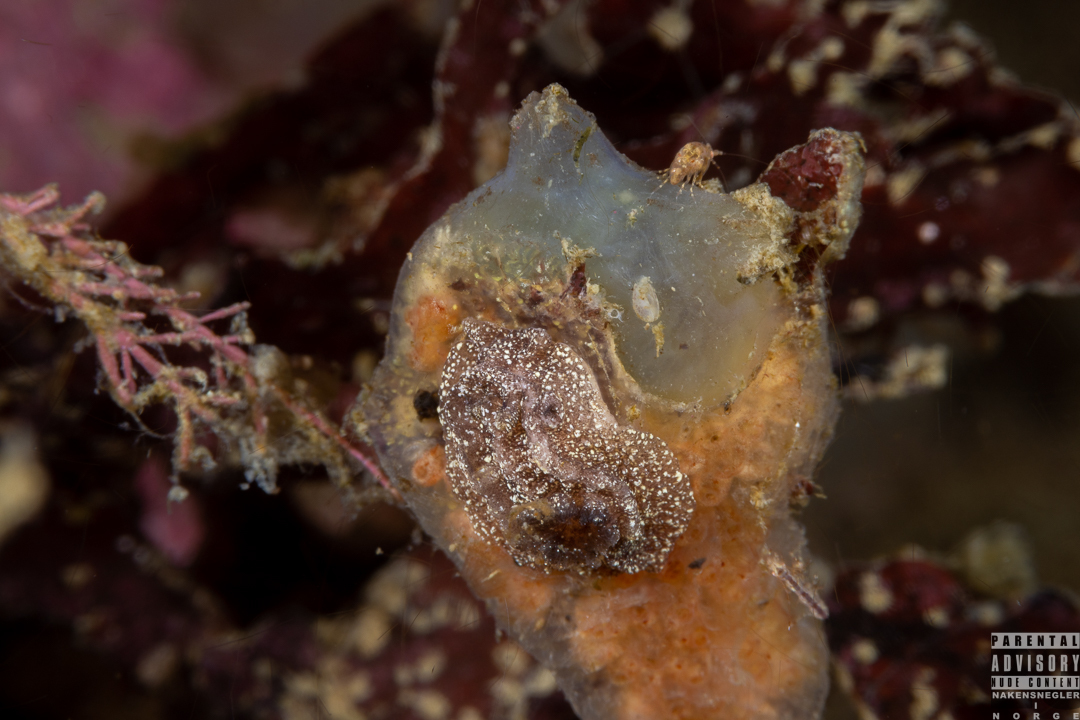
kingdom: Animalia
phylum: Mollusca
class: Gastropoda
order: Nudibranchia
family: Goniodorididae
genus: Pelagella
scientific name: Pelagella castanea
